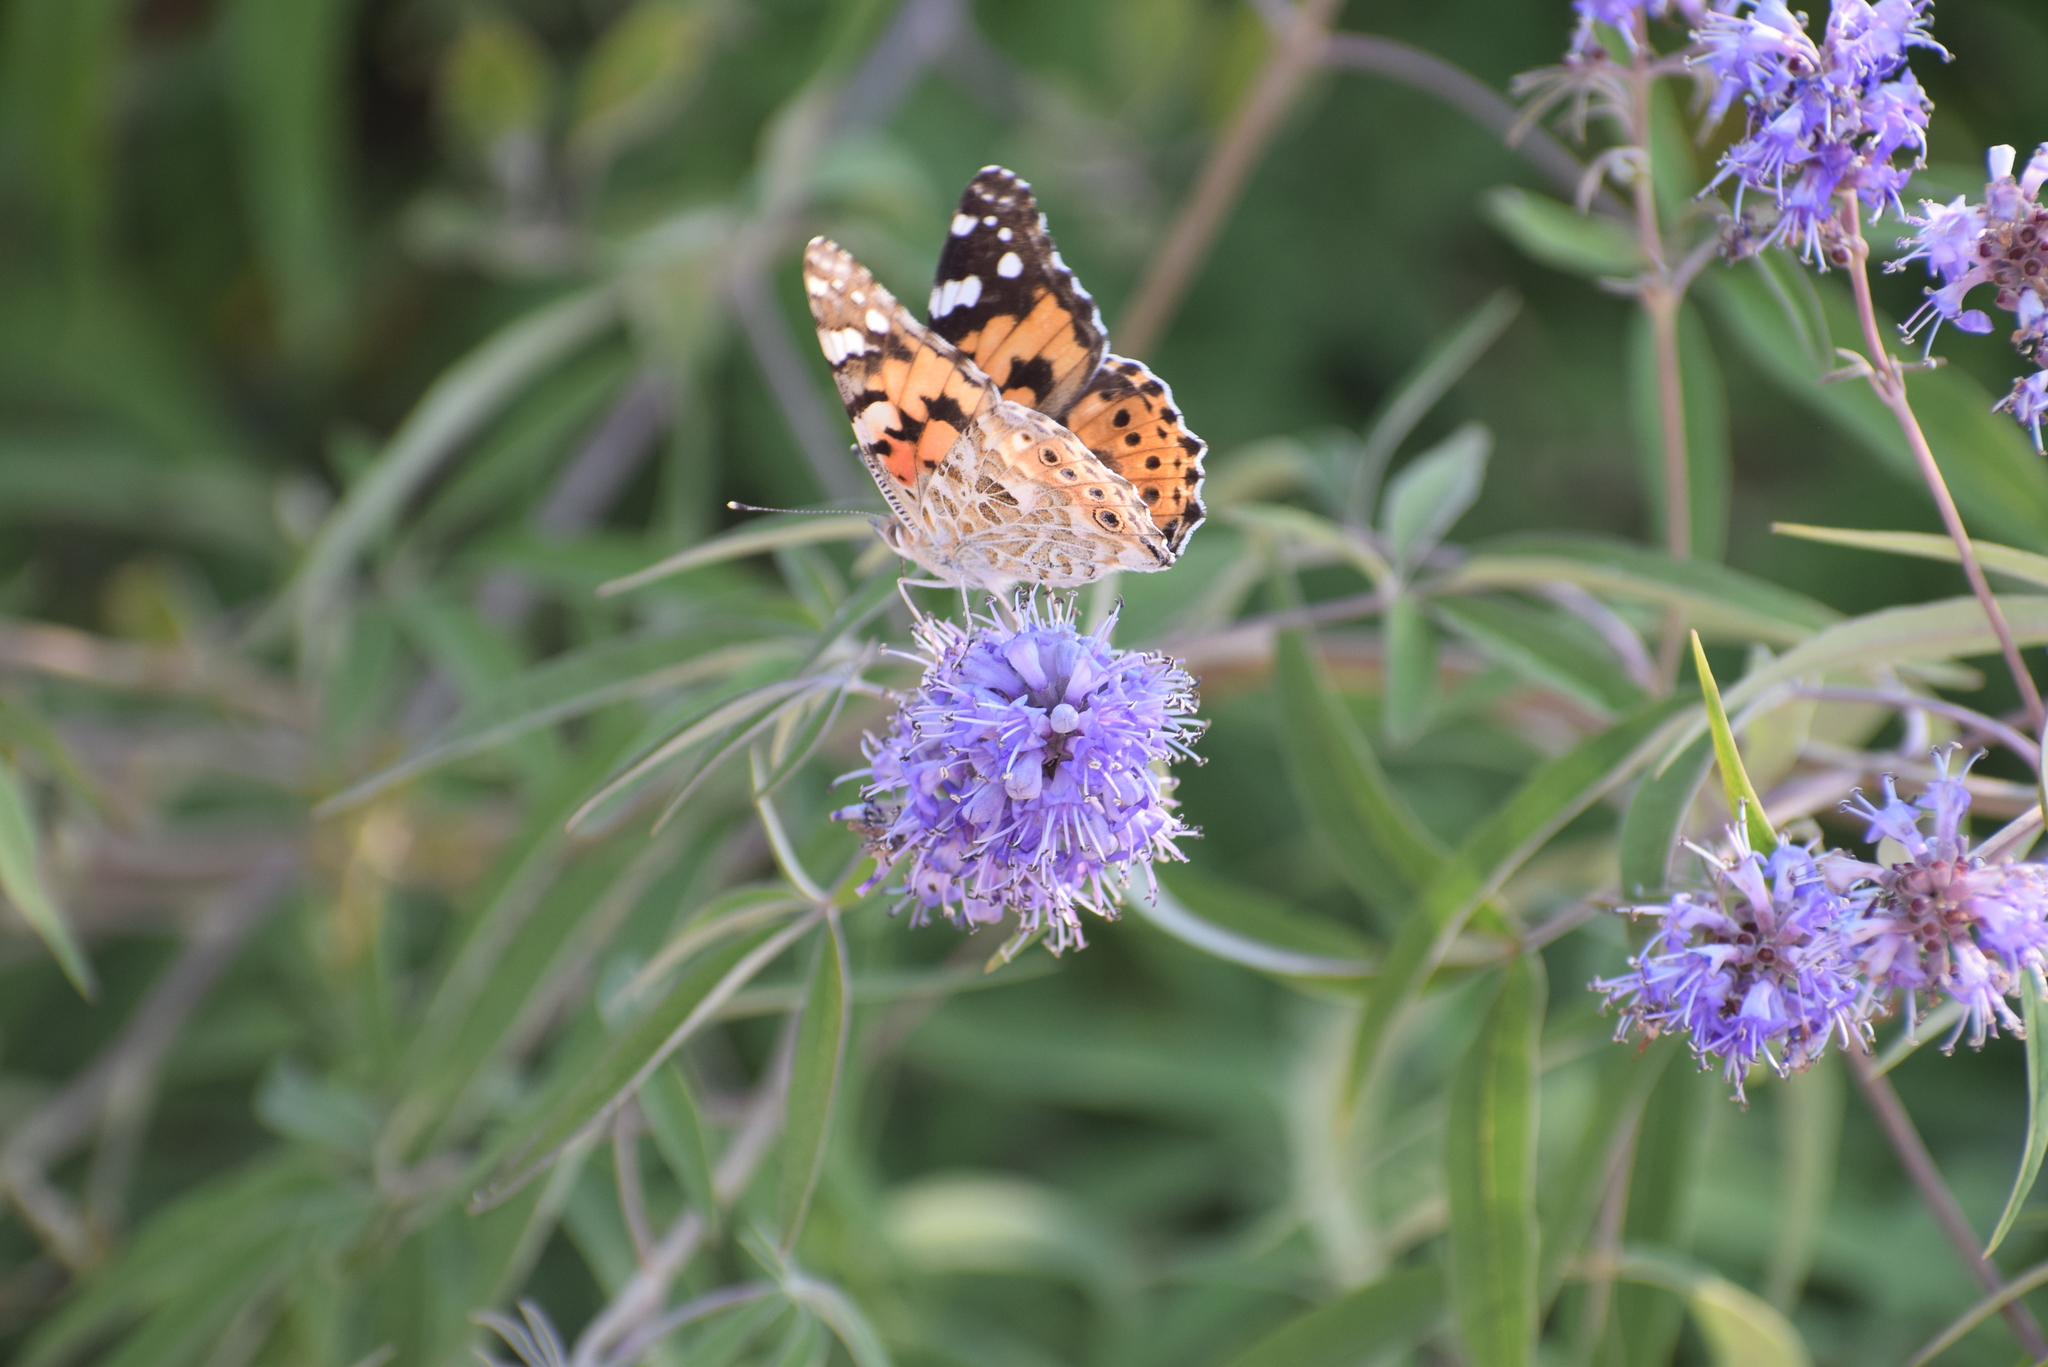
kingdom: Animalia
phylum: Arthropoda
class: Insecta
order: Lepidoptera
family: Nymphalidae
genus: Vanessa
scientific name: Vanessa cardui
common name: Painted lady
